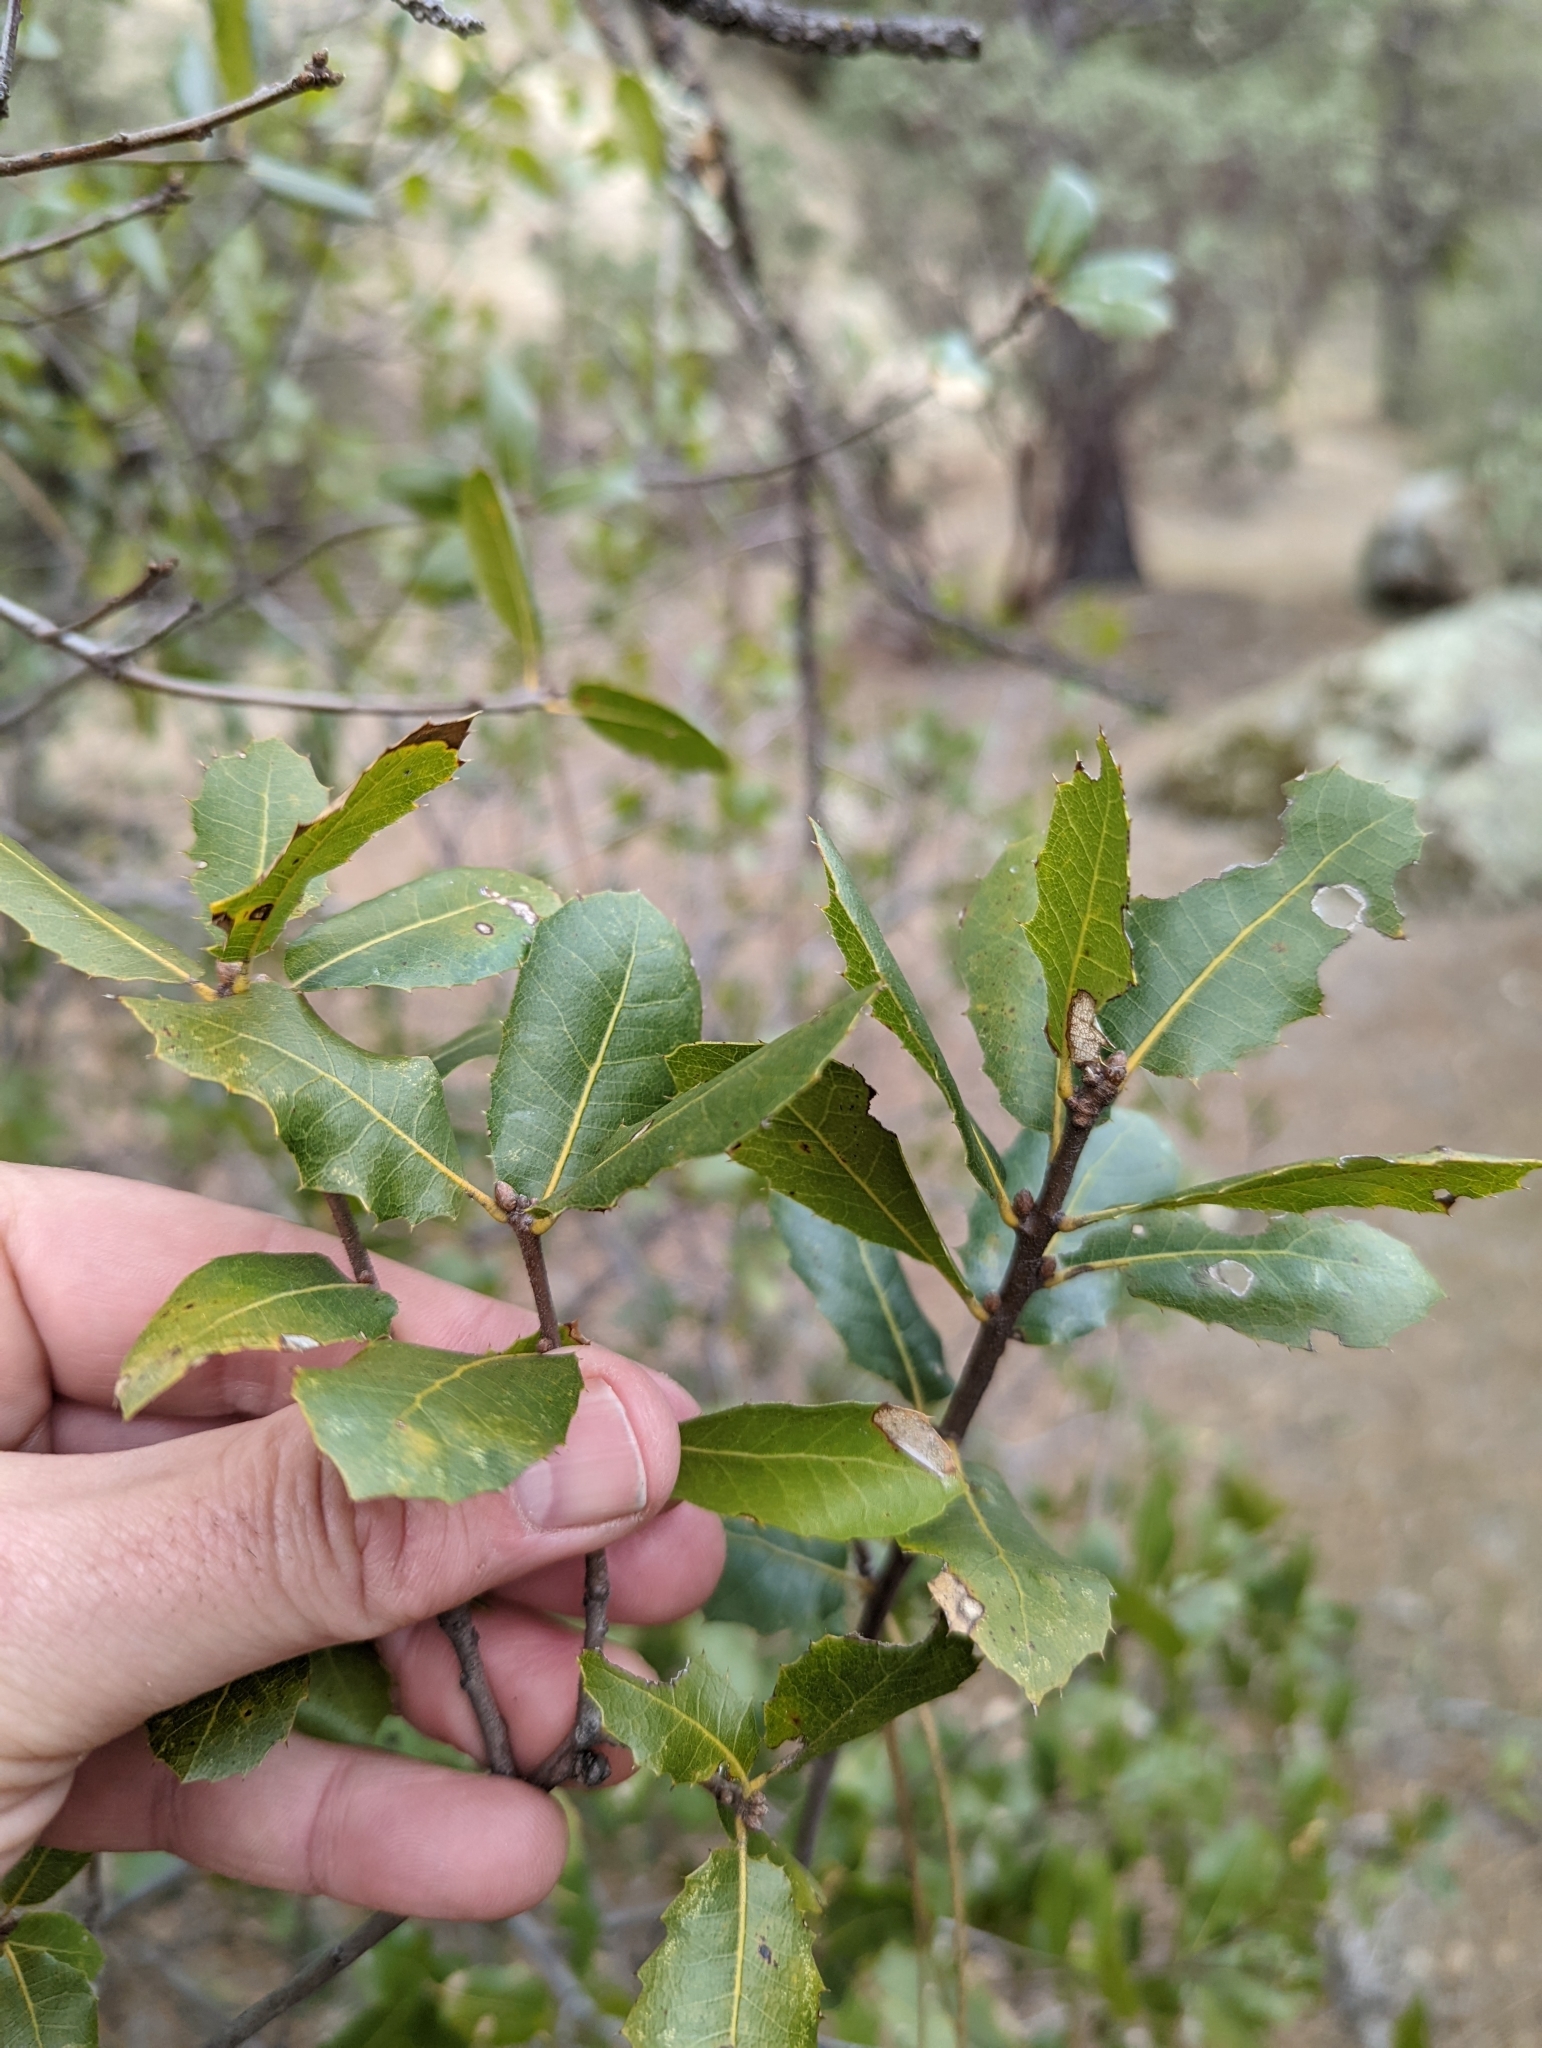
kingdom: Plantae
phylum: Tracheophyta
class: Magnoliopsida
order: Fagales
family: Fagaceae
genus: Quercus
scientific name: Quercus wislizeni
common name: Interior live oak
